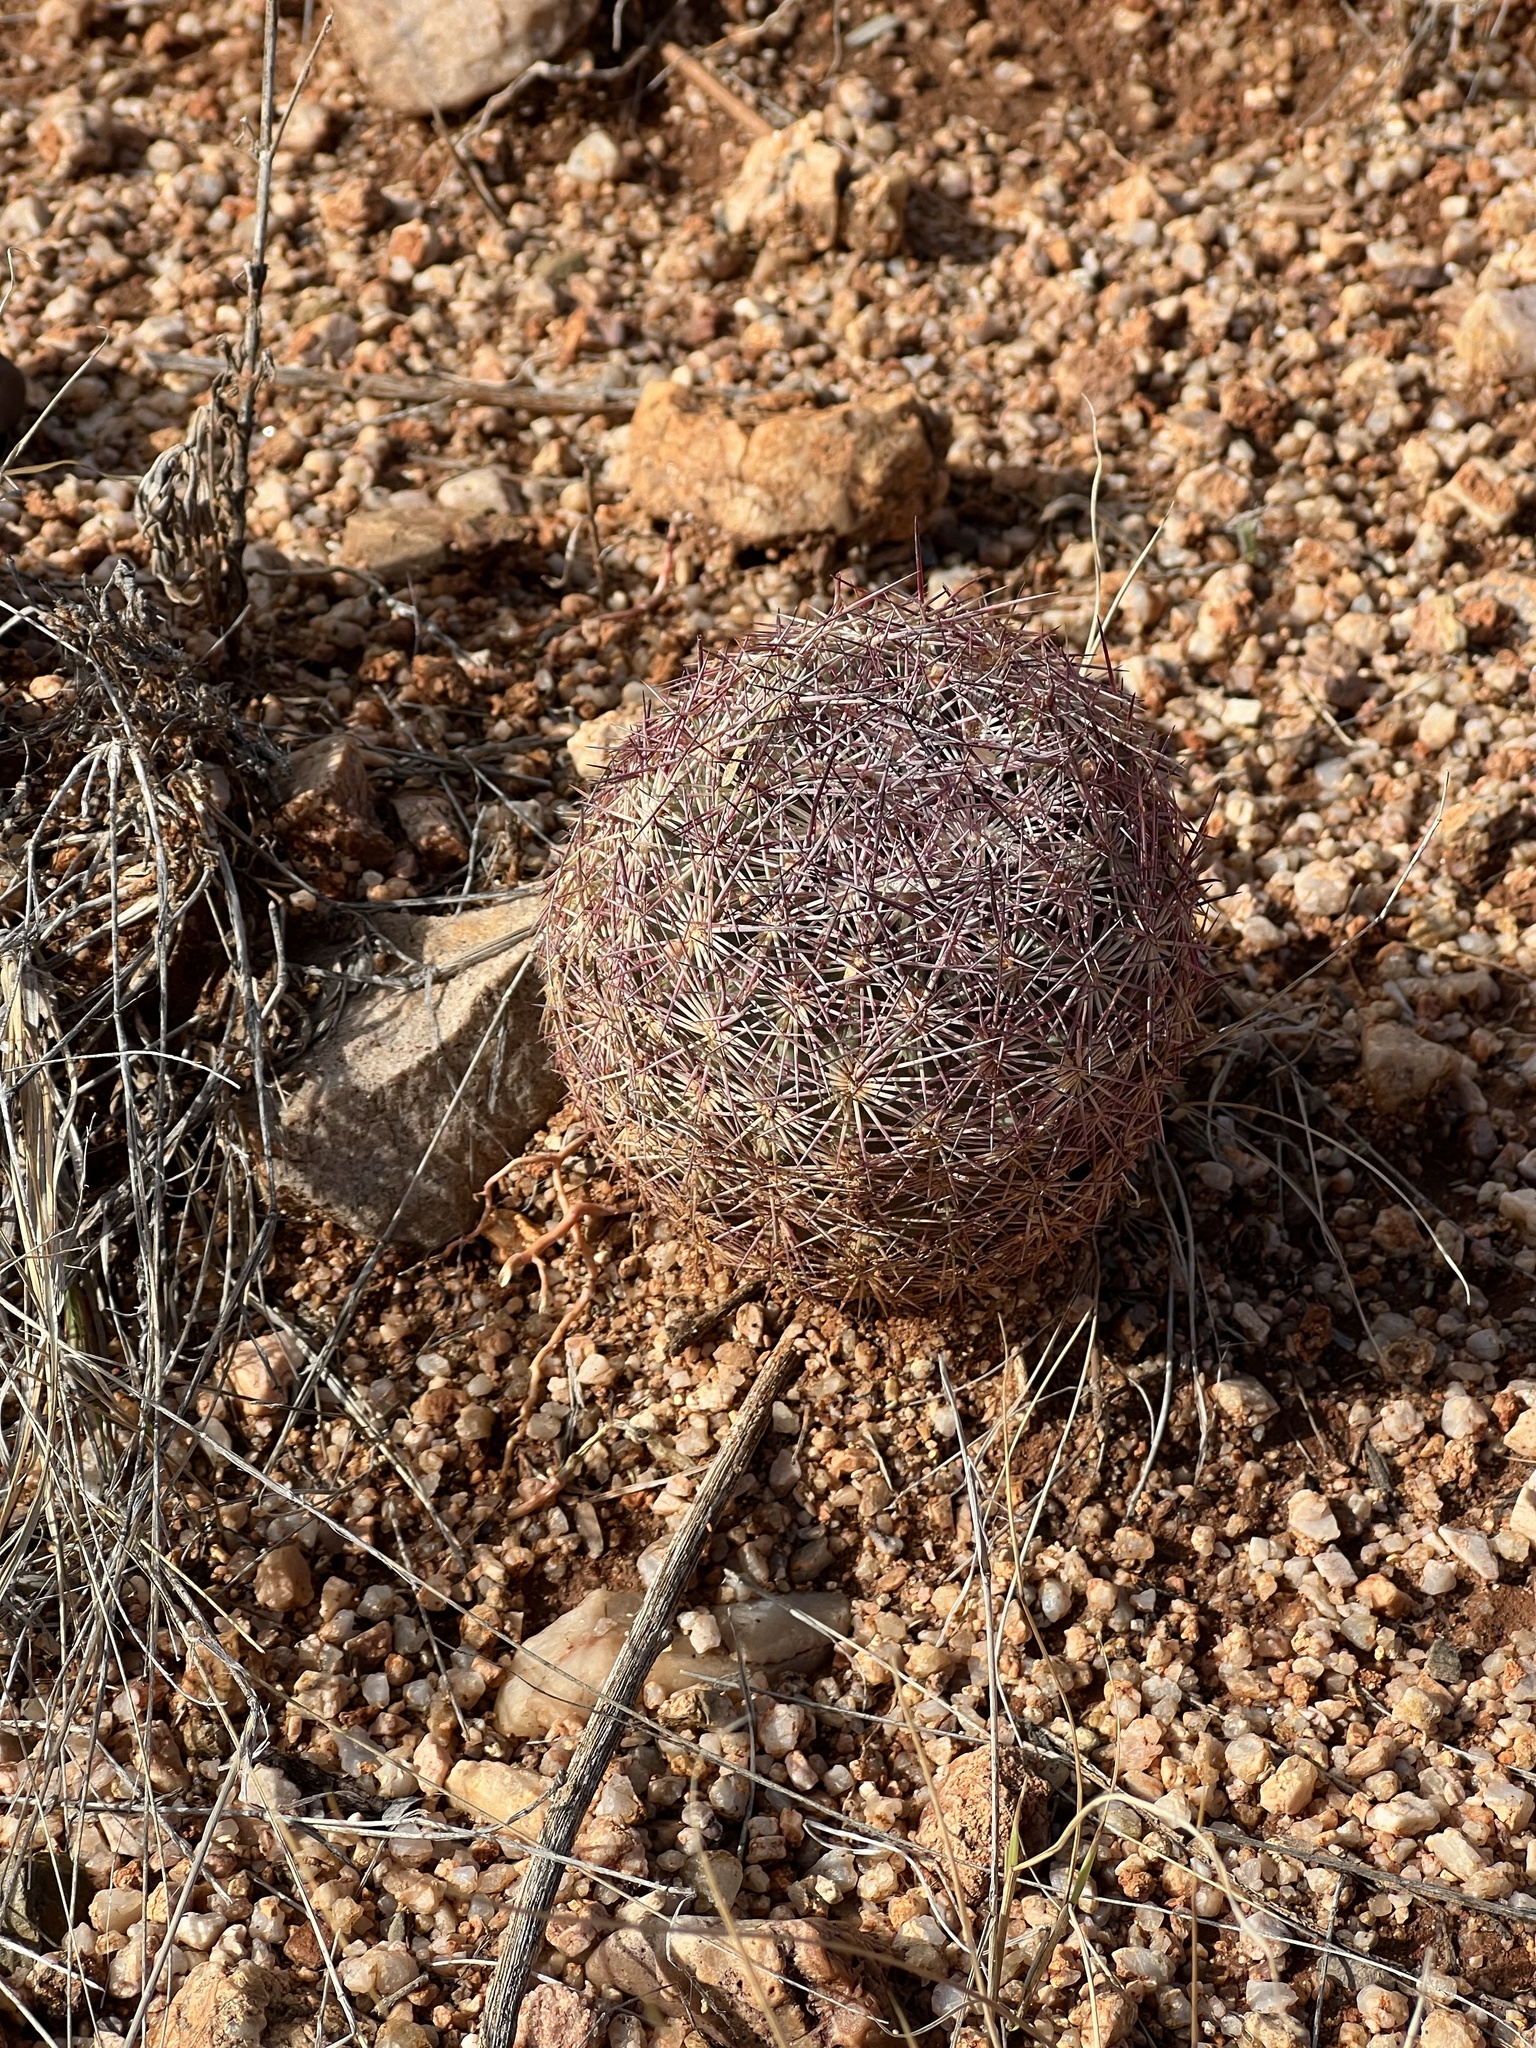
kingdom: Plantae
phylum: Tracheophyta
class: Magnoliopsida
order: Caryophyllales
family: Cactaceae
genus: Sclerocactus
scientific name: Sclerocactus johnsonii
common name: Eight-spine fishhook cactus
